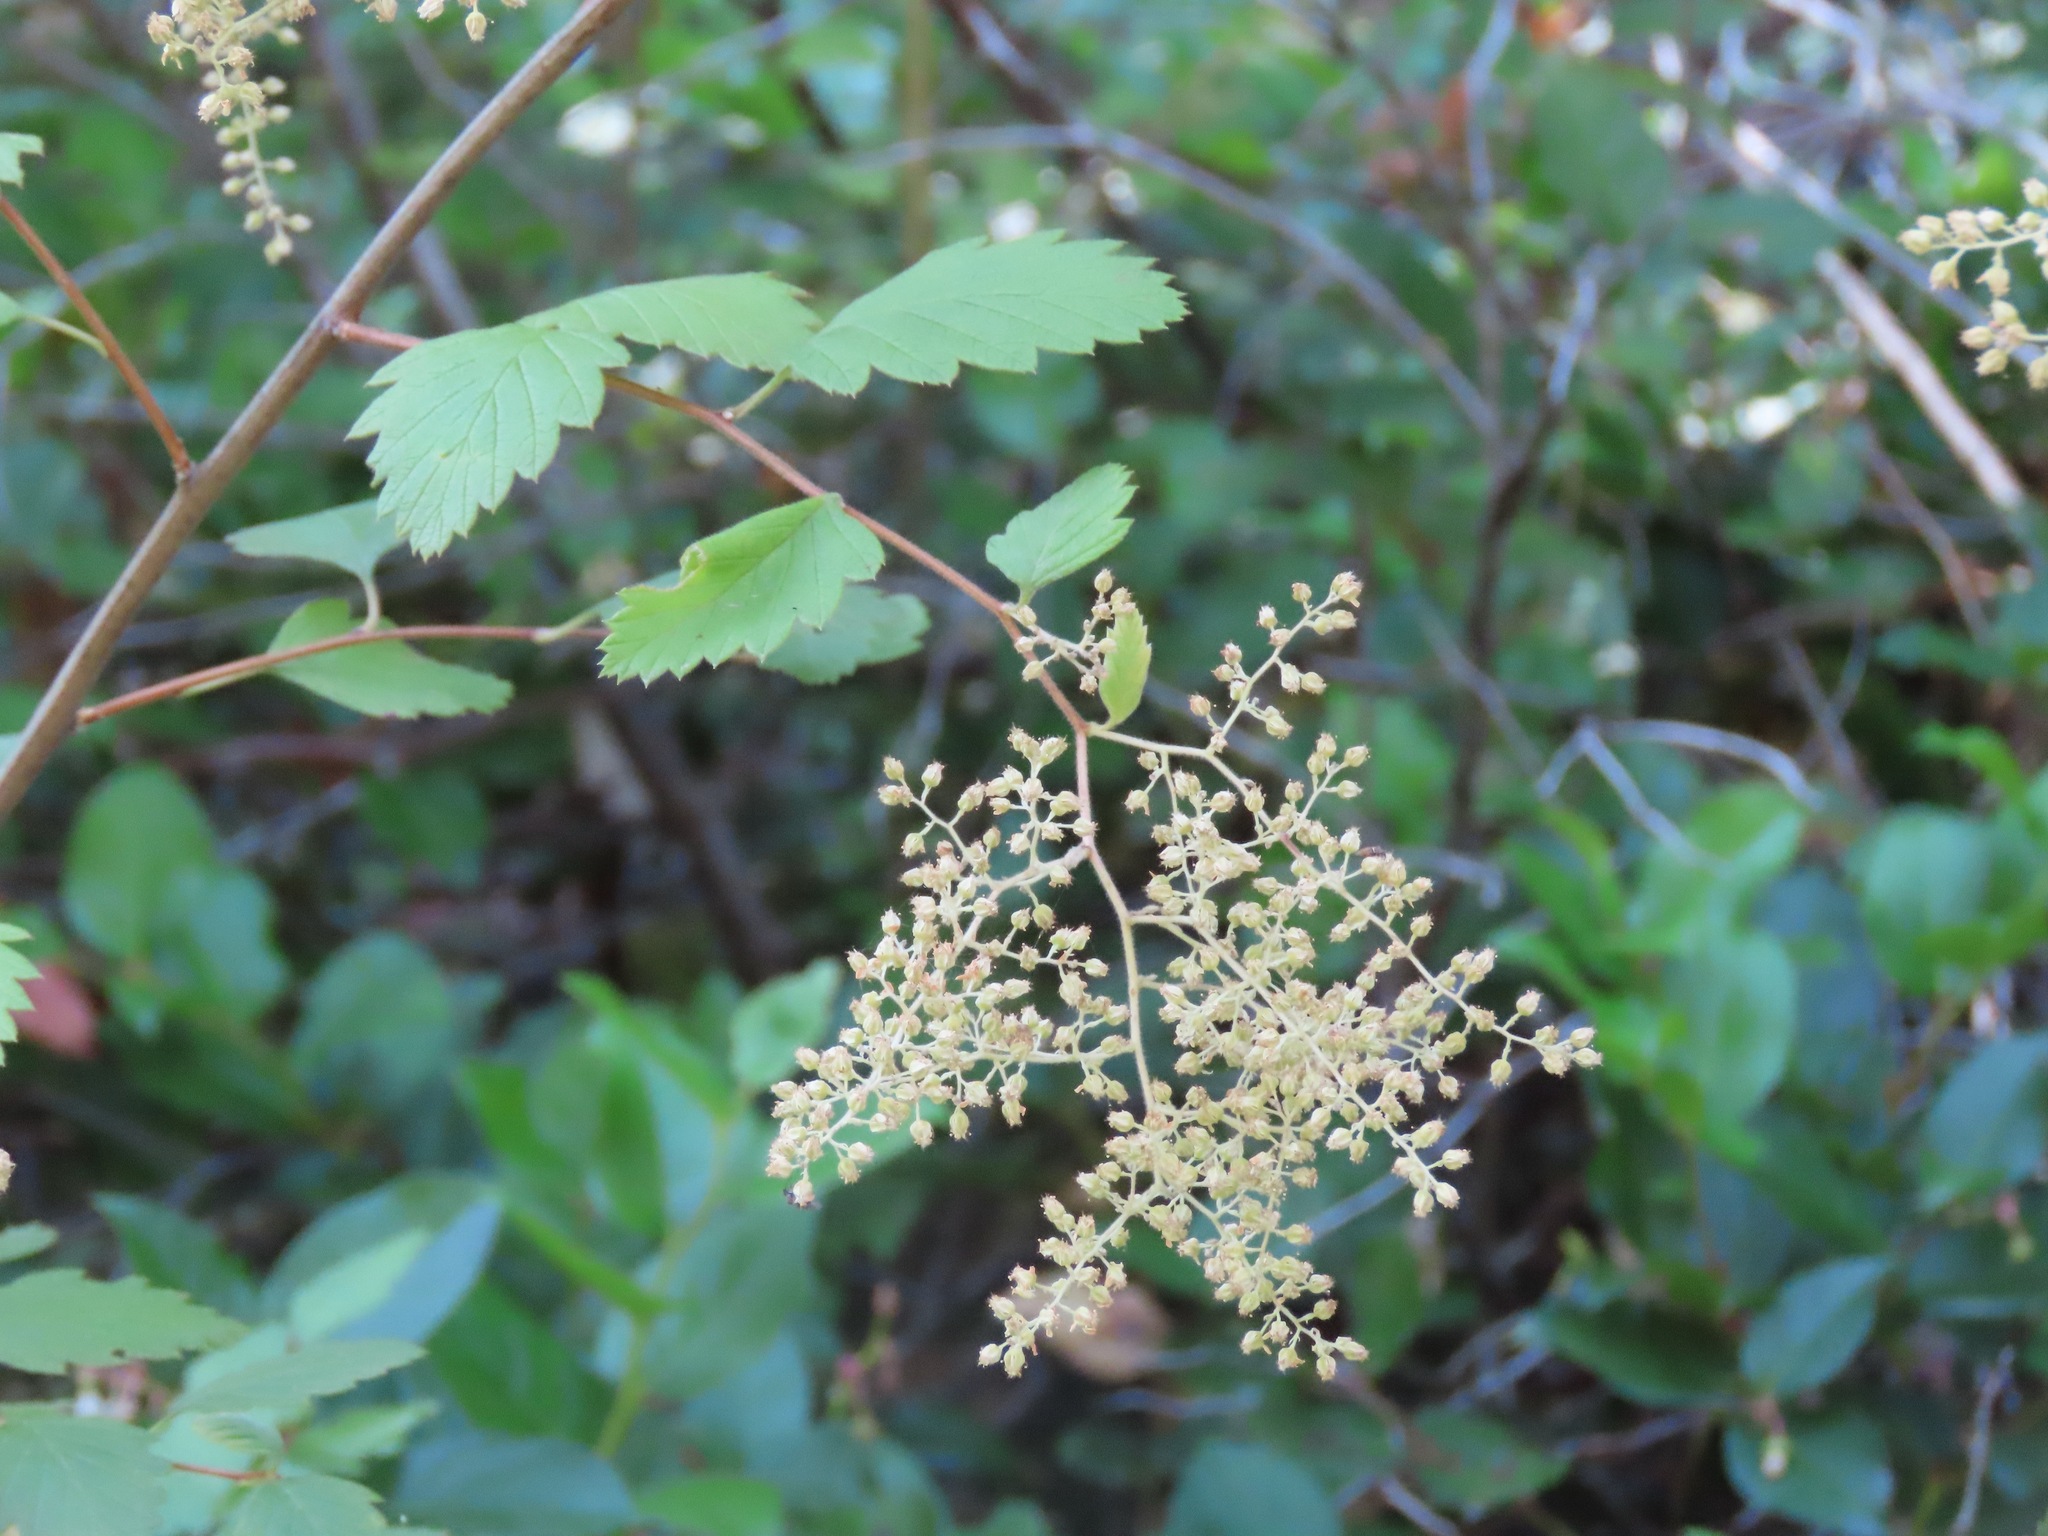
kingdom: Plantae
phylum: Tracheophyta
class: Magnoliopsida
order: Rosales
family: Rosaceae
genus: Holodiscus
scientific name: Holodiscus discolor
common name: Oceanspray
